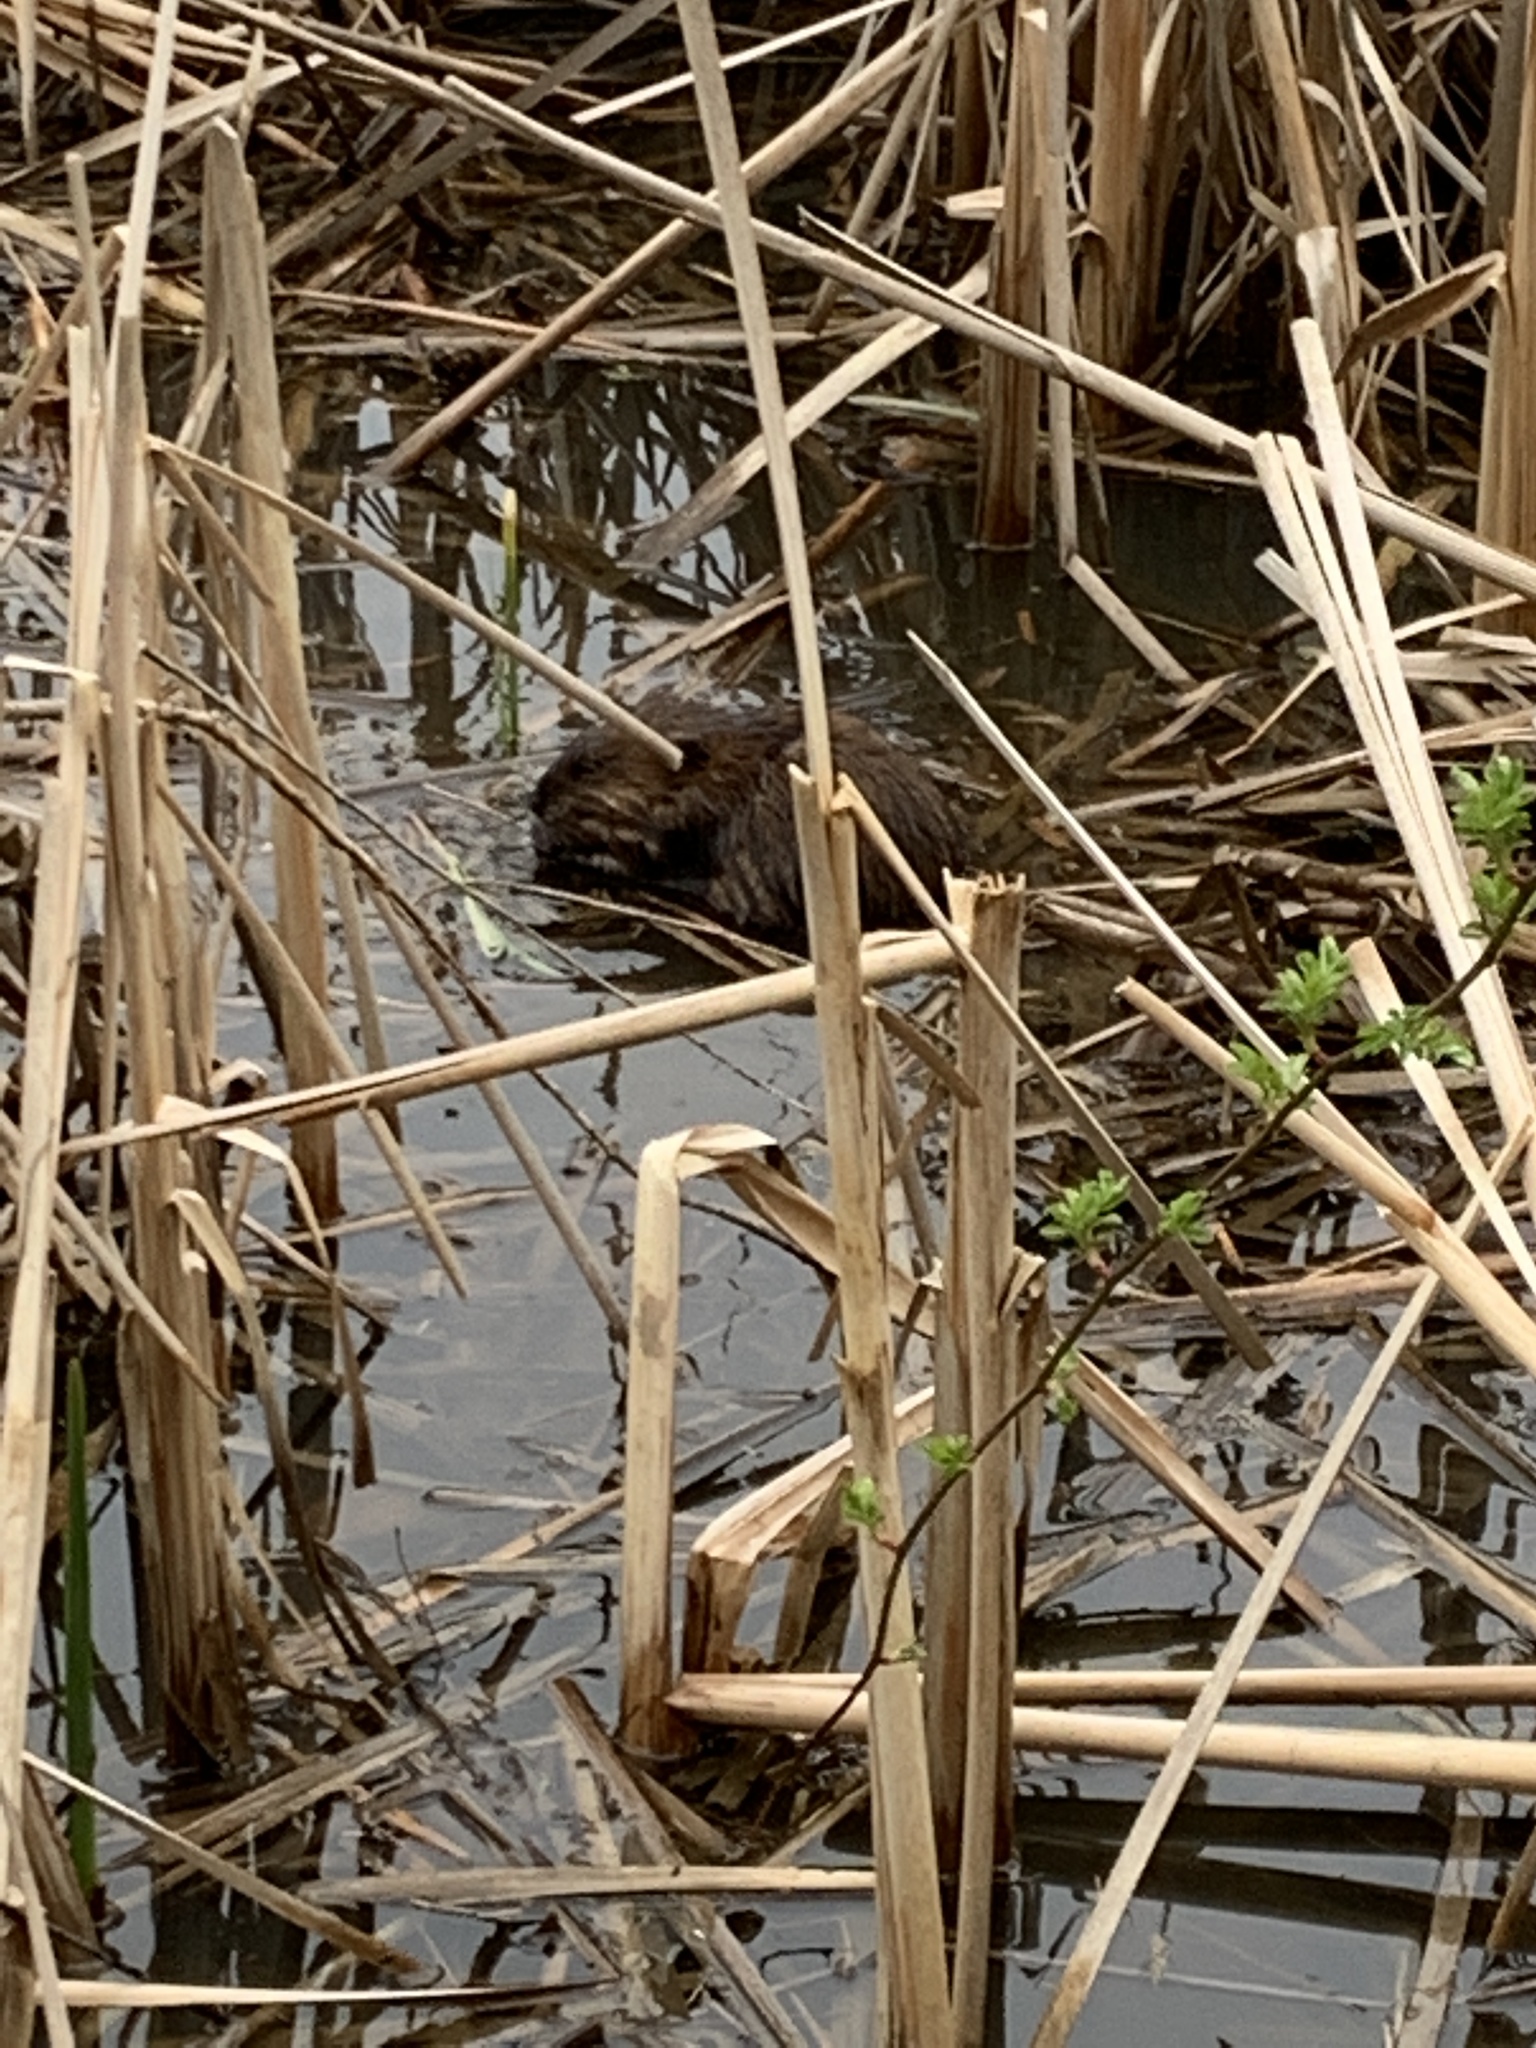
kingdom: Animalia
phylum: Chordata
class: Mammalia
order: Rodentia
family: Cricetidae
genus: Ondatra
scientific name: Ondatra zibethicus
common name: Muskrat
